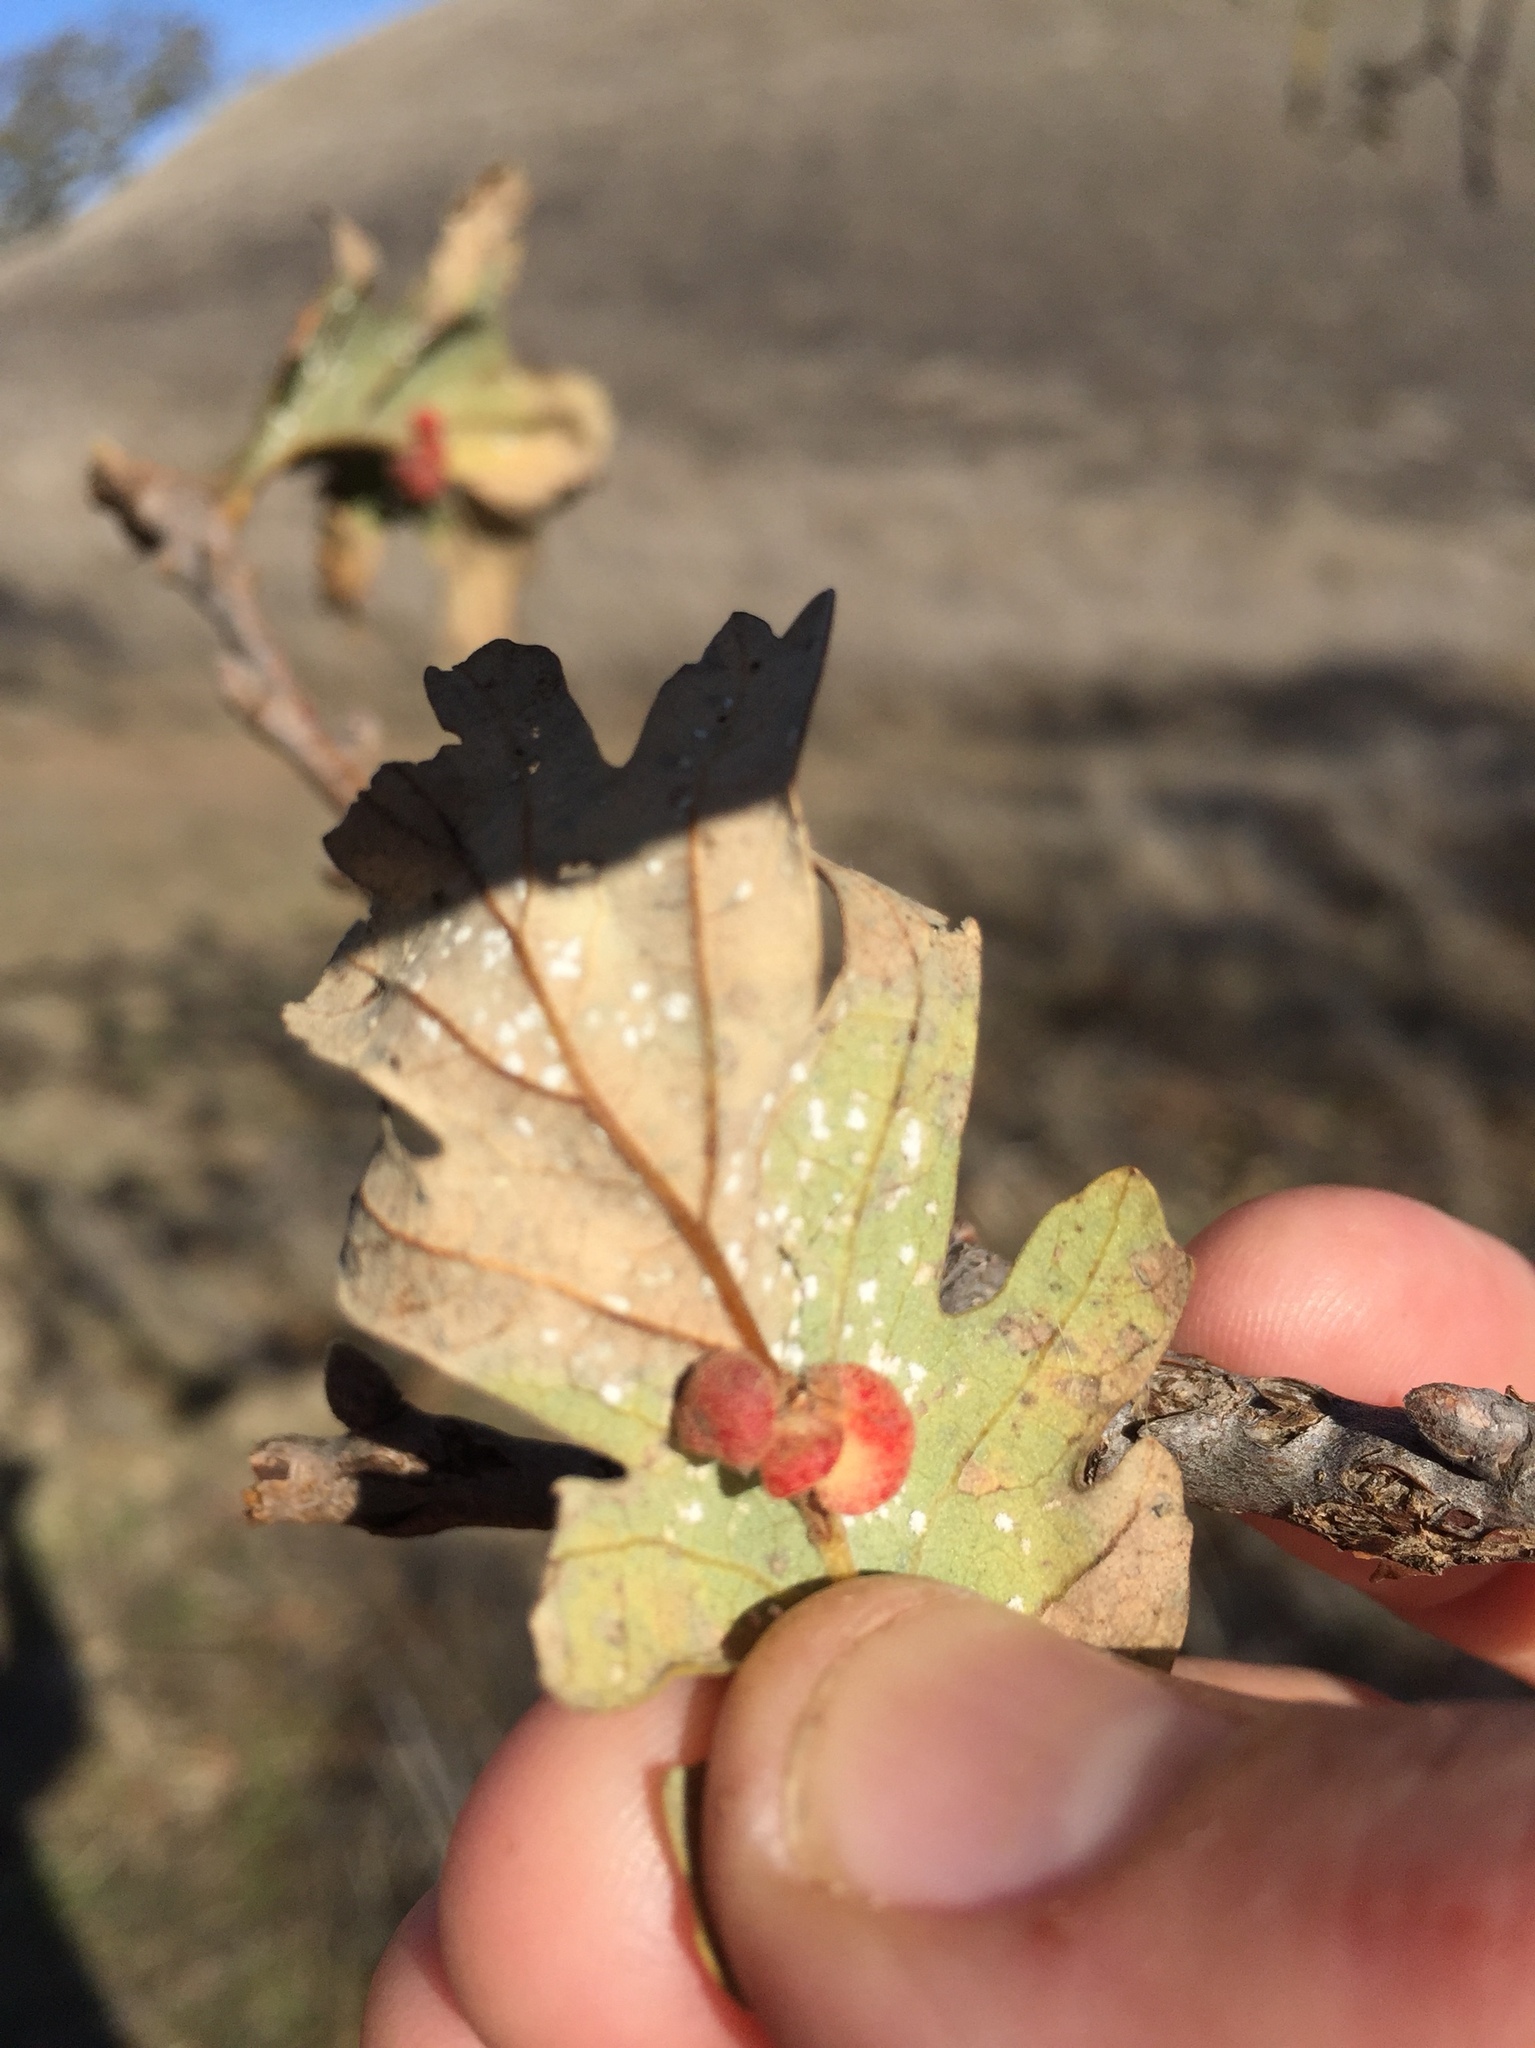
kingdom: Animalia
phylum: Arthropoda
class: Insecta
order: Hymenoptera
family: Cynipidae
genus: Andricus
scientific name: Andricus
